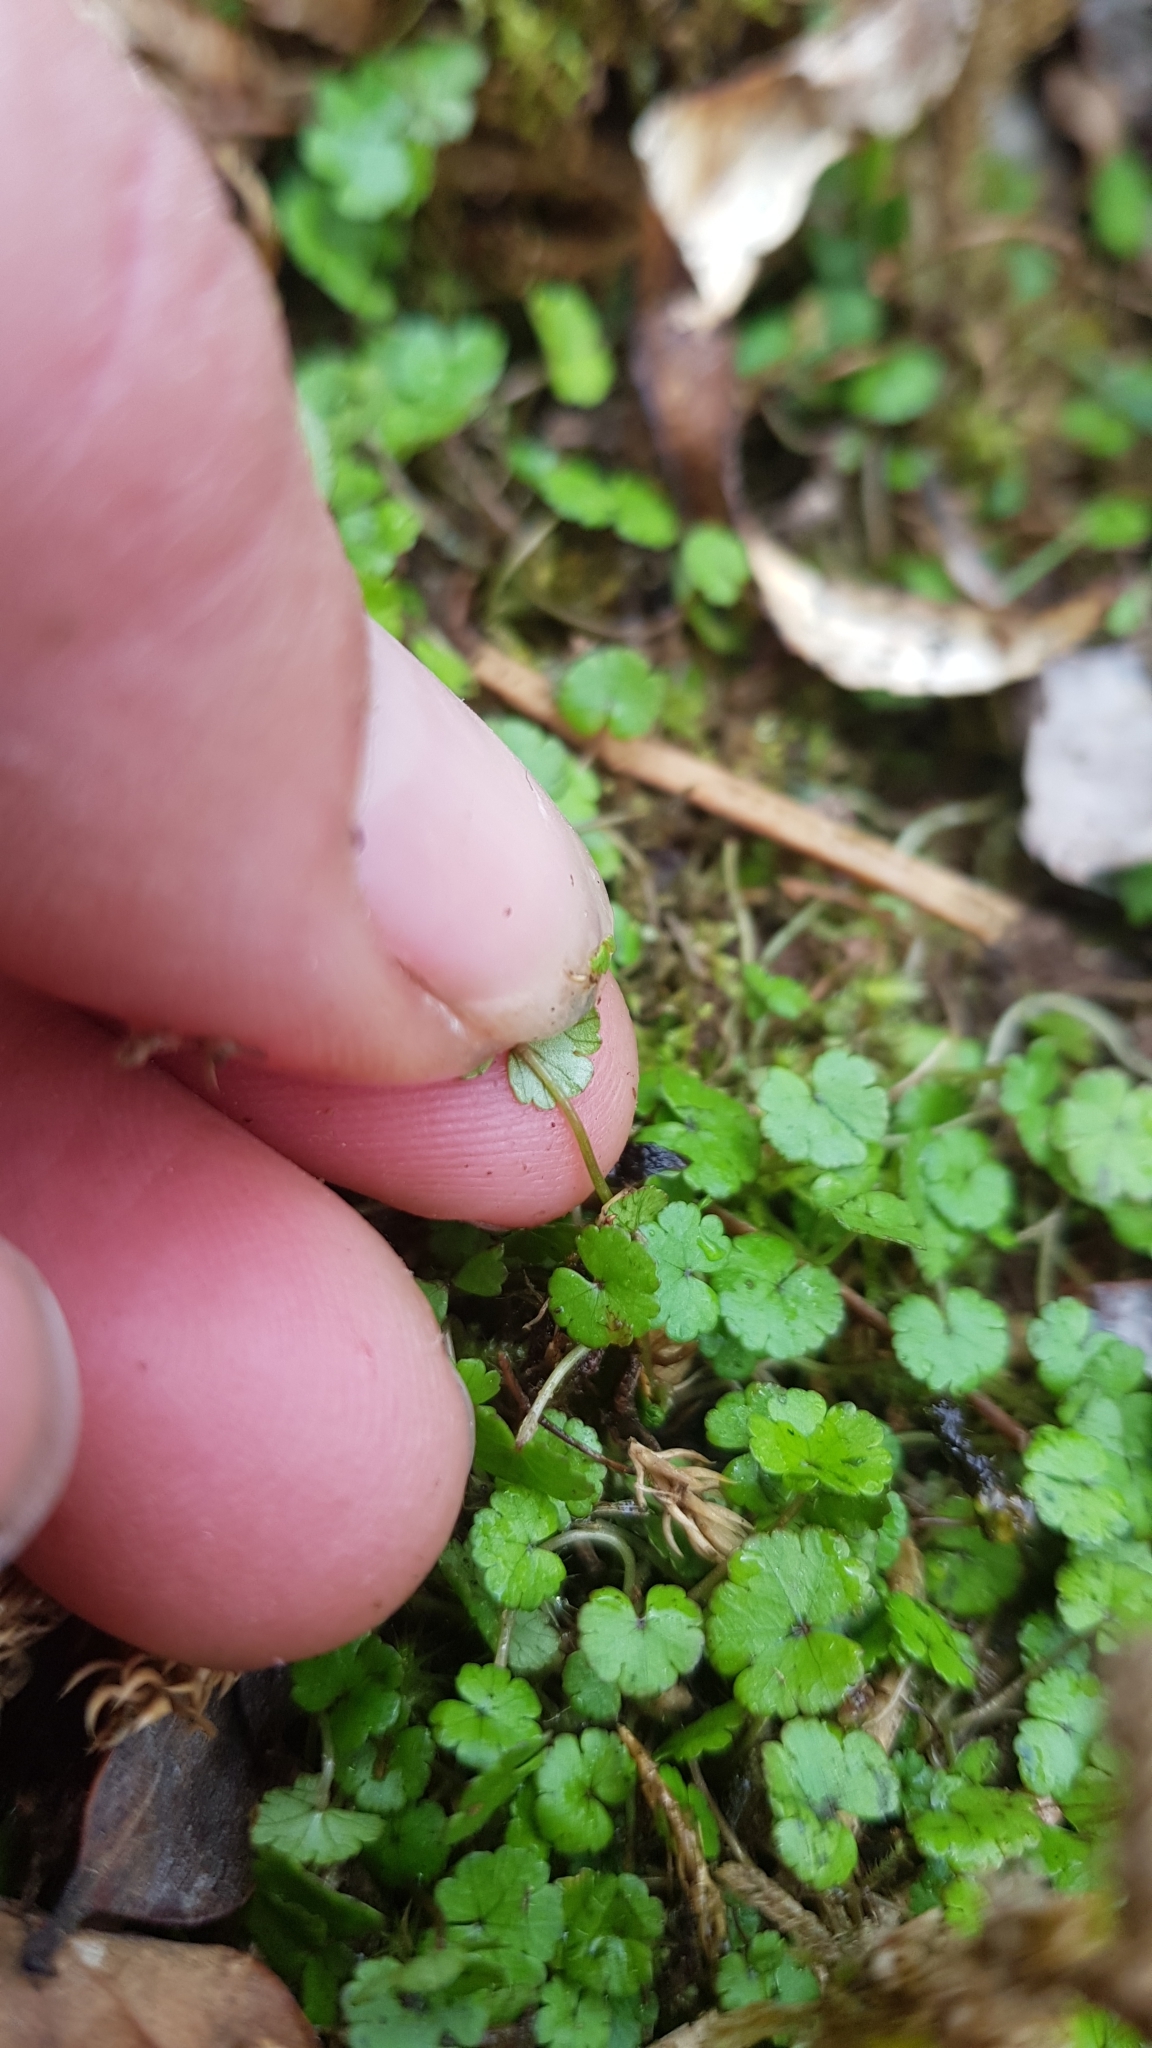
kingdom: Plantae
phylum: Tracheophyta
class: Magnoliopsida
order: Apiales
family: Araliaceae
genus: Hydrocotyle
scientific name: Hydrocotyle microphylla
